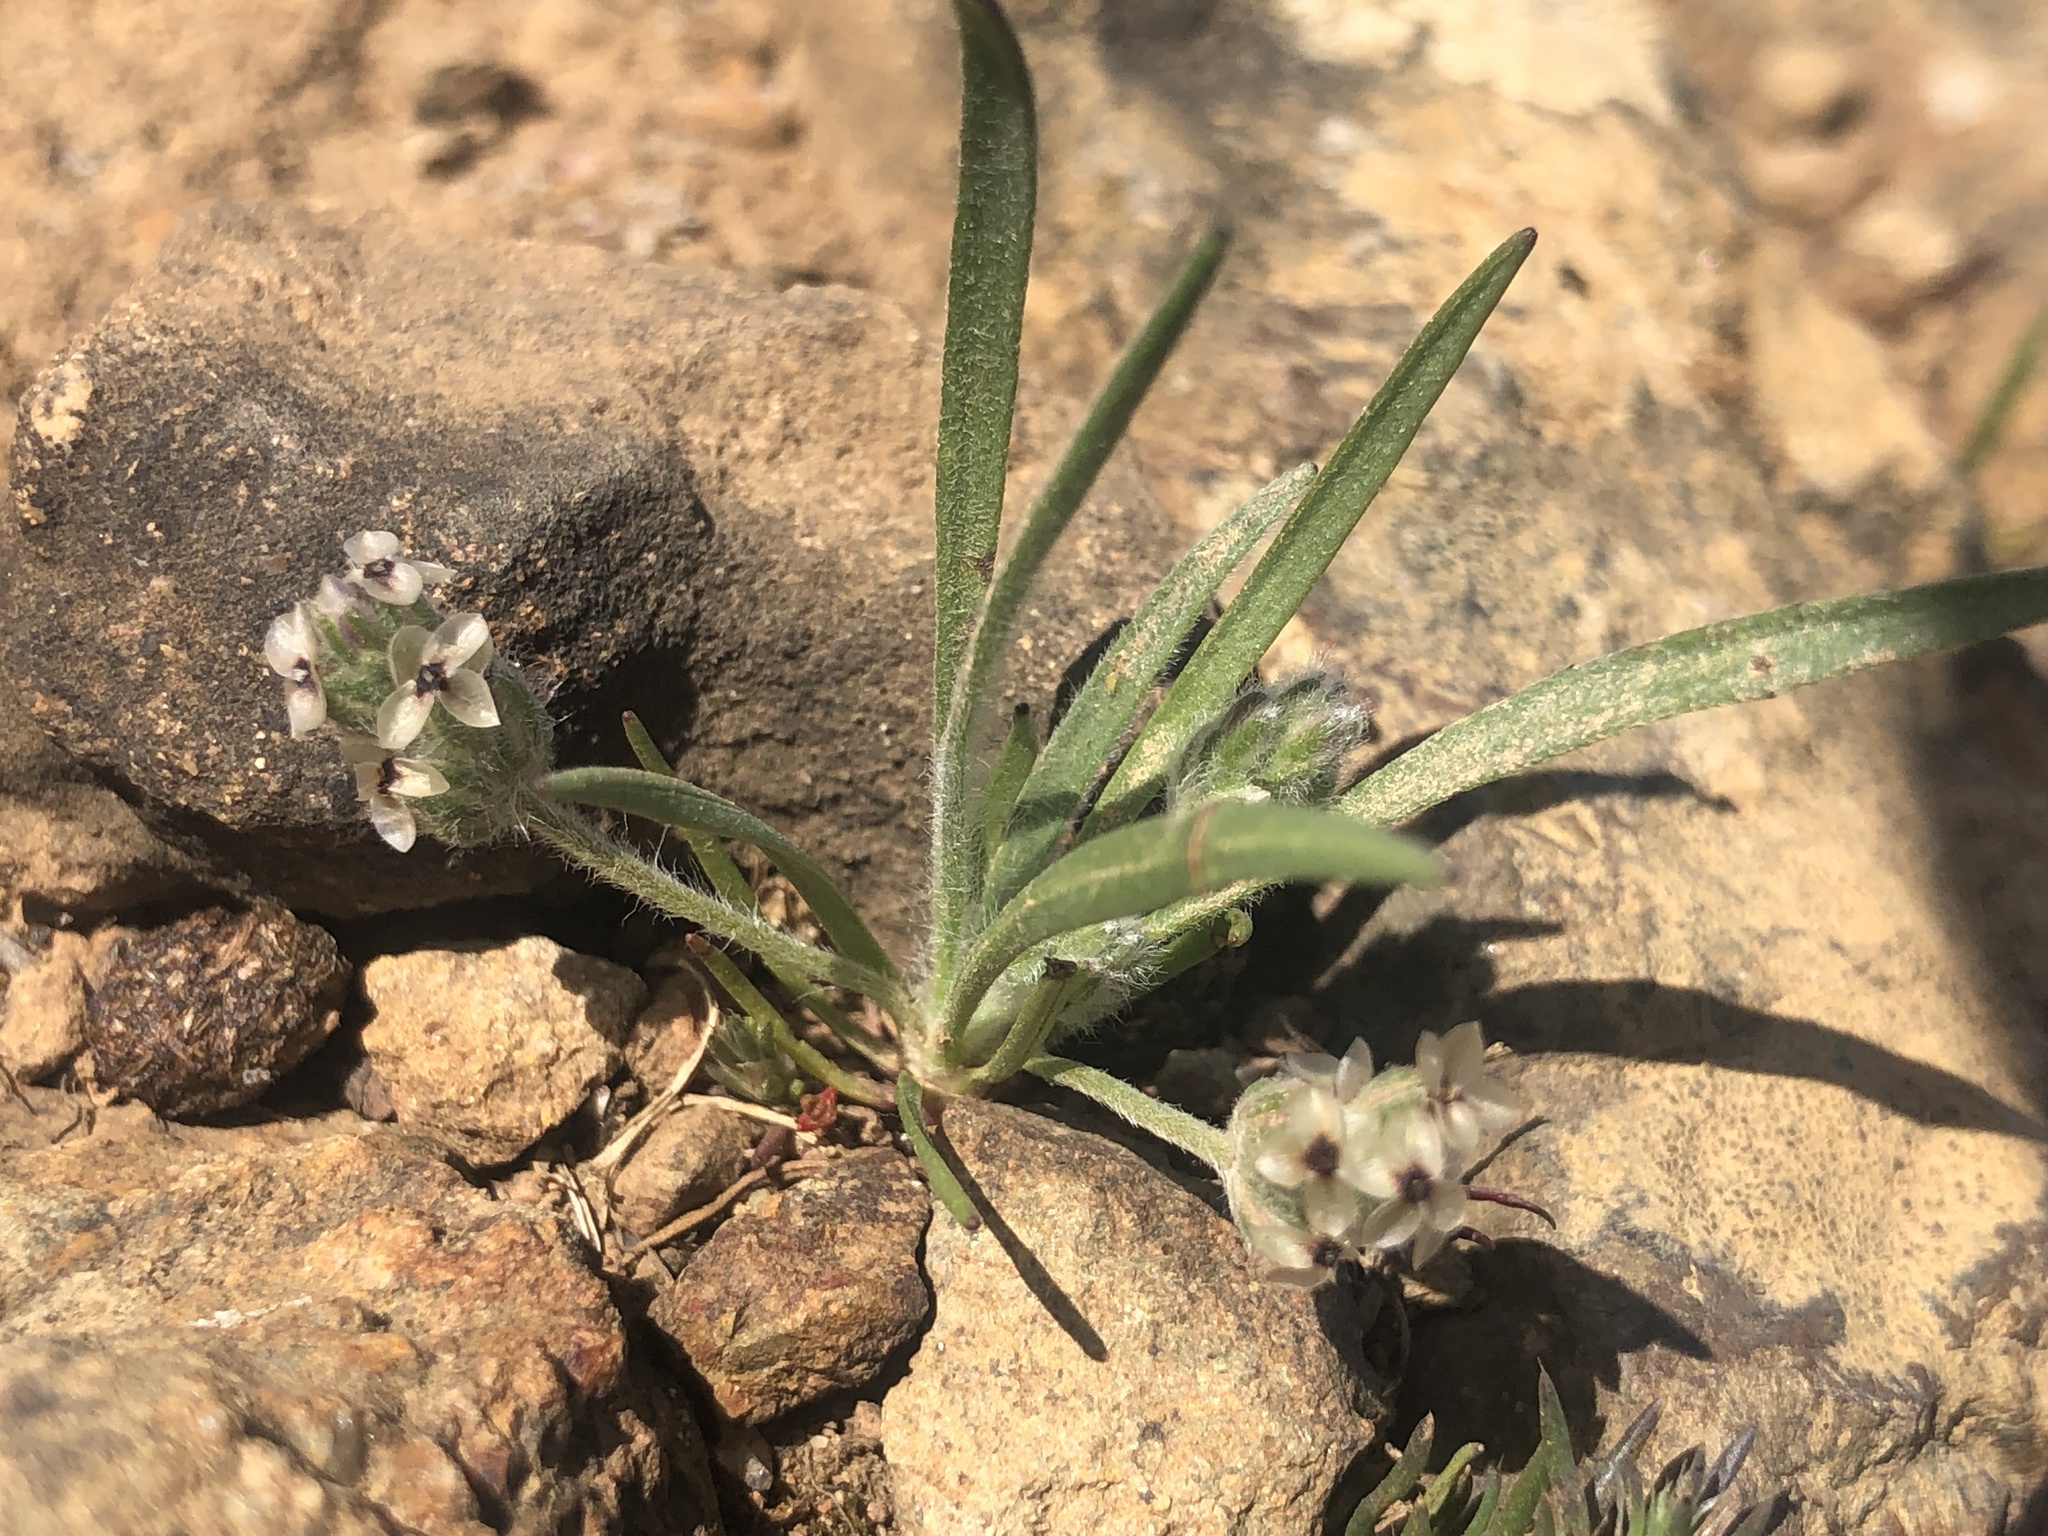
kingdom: Plantae
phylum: Tracheophyta
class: Magnoliopsida
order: Lamiales
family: Plantaginaceae
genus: Plantago
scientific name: Plantago erecta
